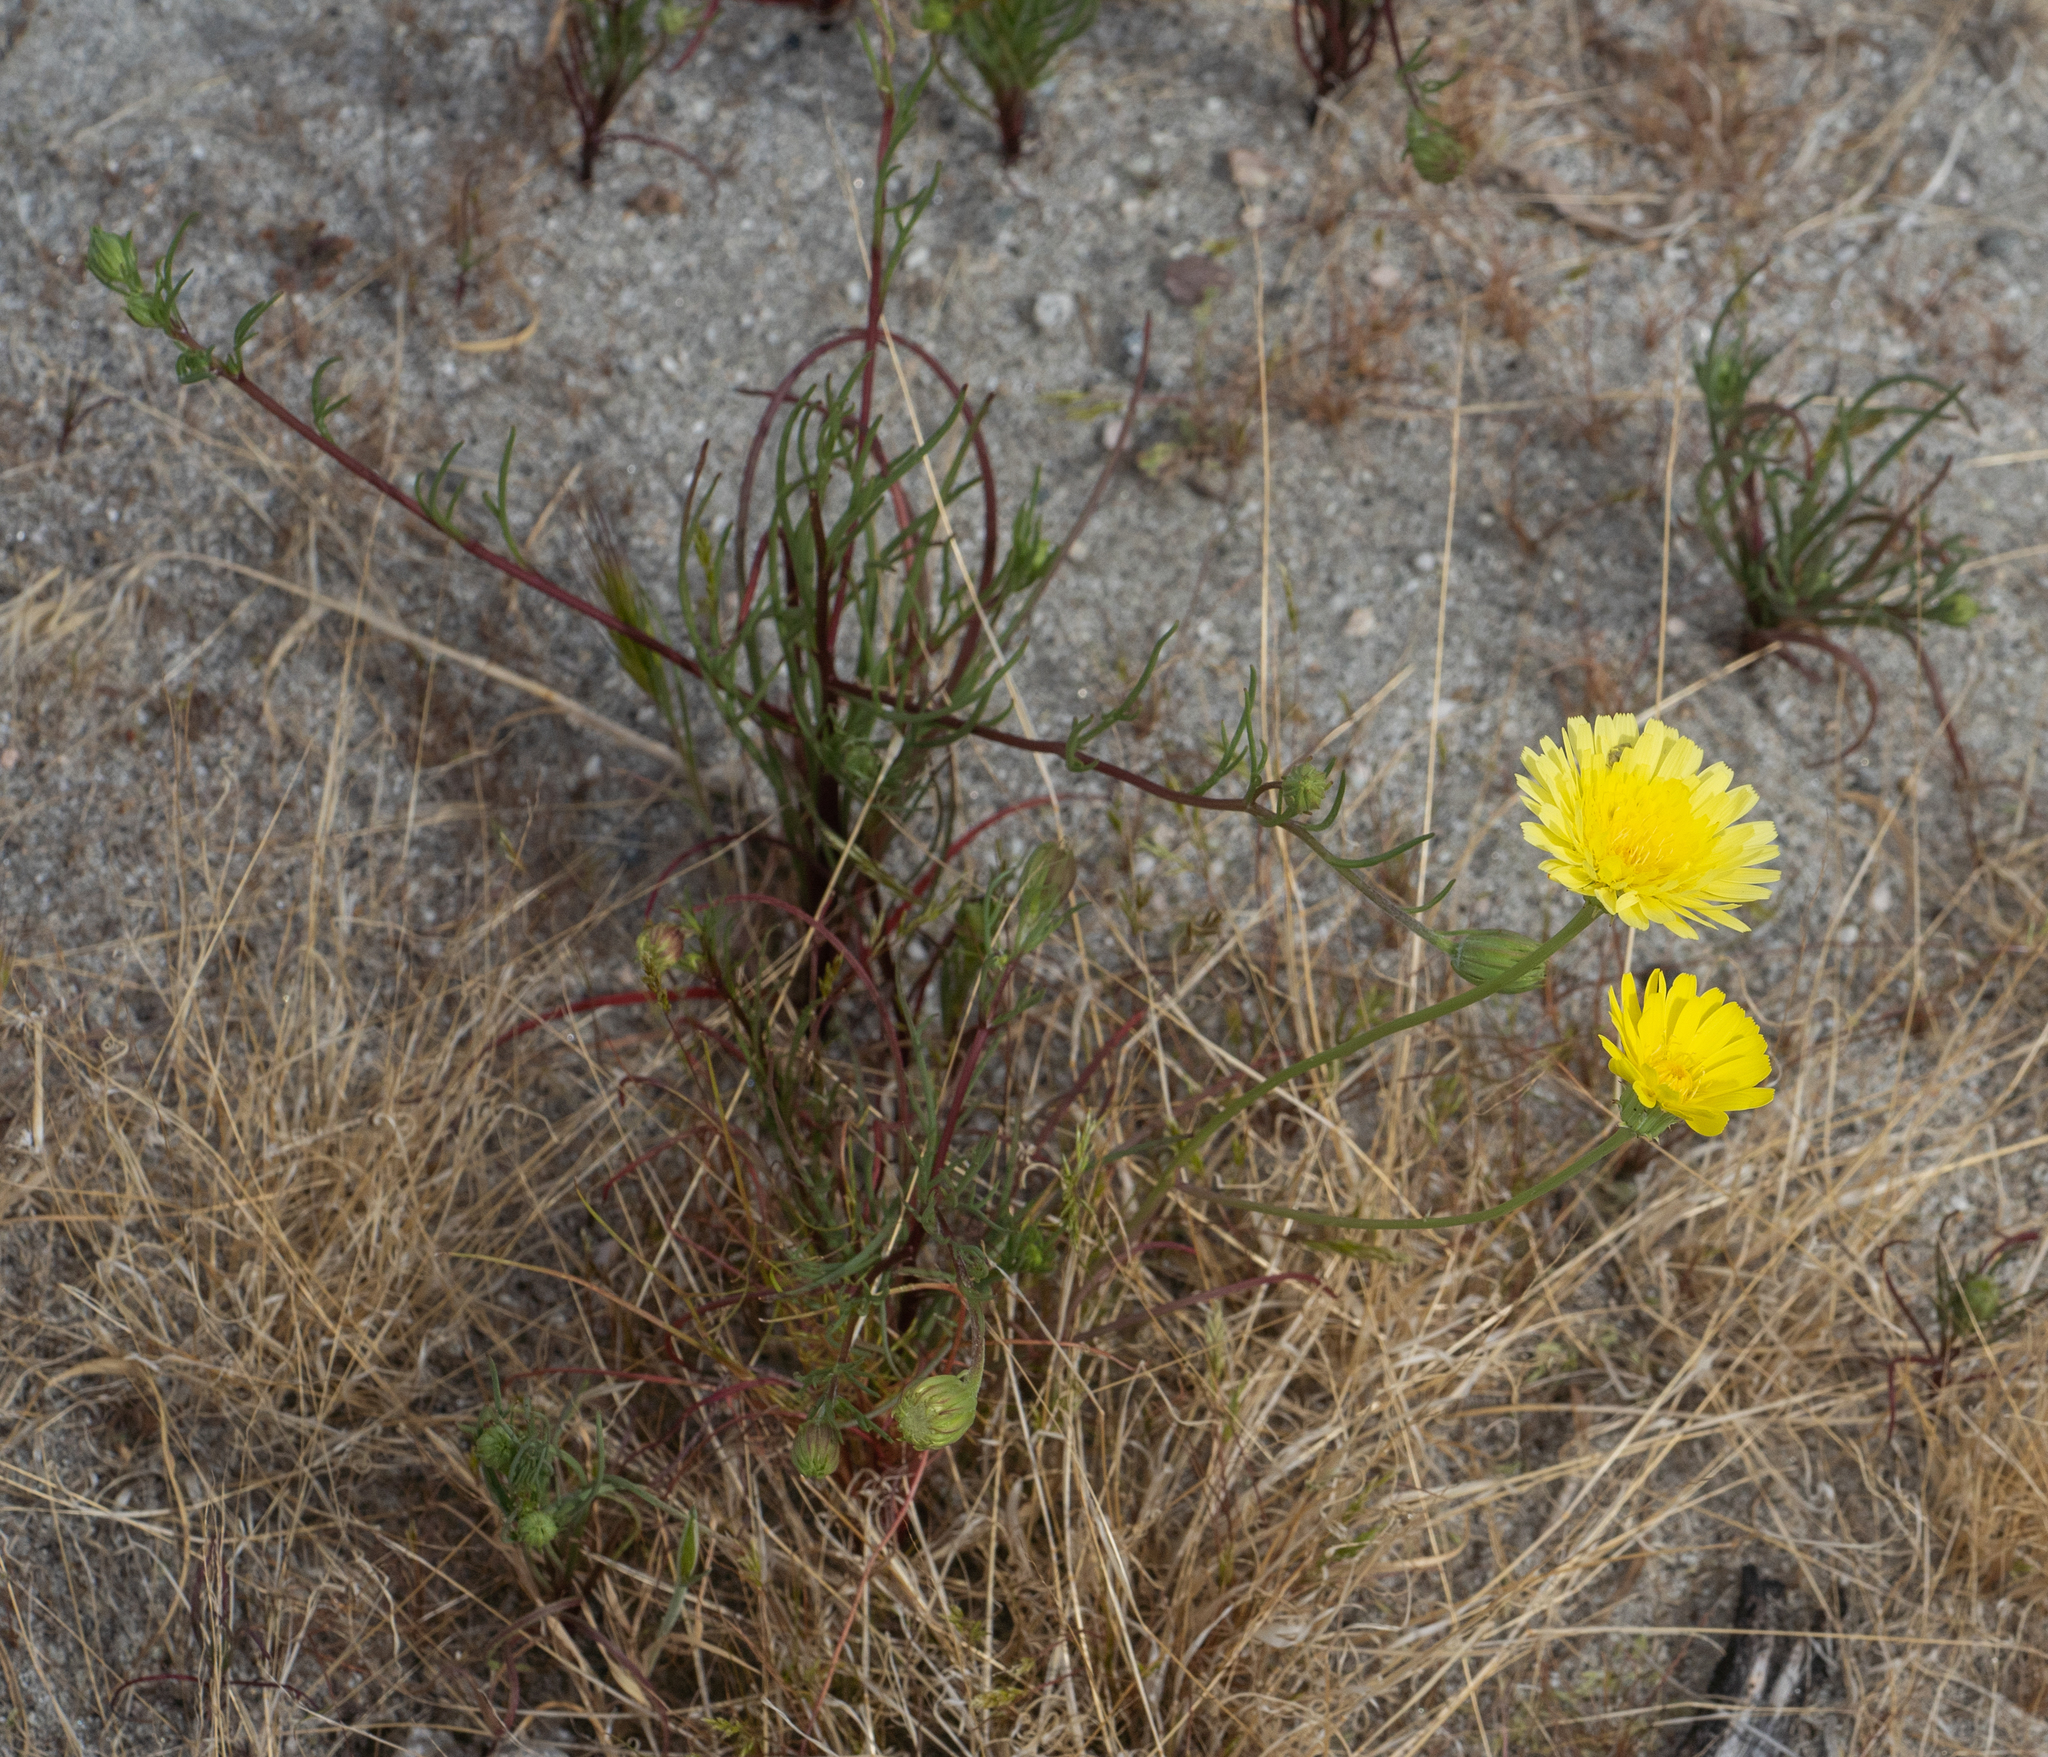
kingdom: Plantae
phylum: Tracheophyta
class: Magnoliopsida
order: Asterales
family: Asteraceae
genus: Malacothrix
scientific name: Malacothrix glabrata
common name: Smooth desert-dandelion
